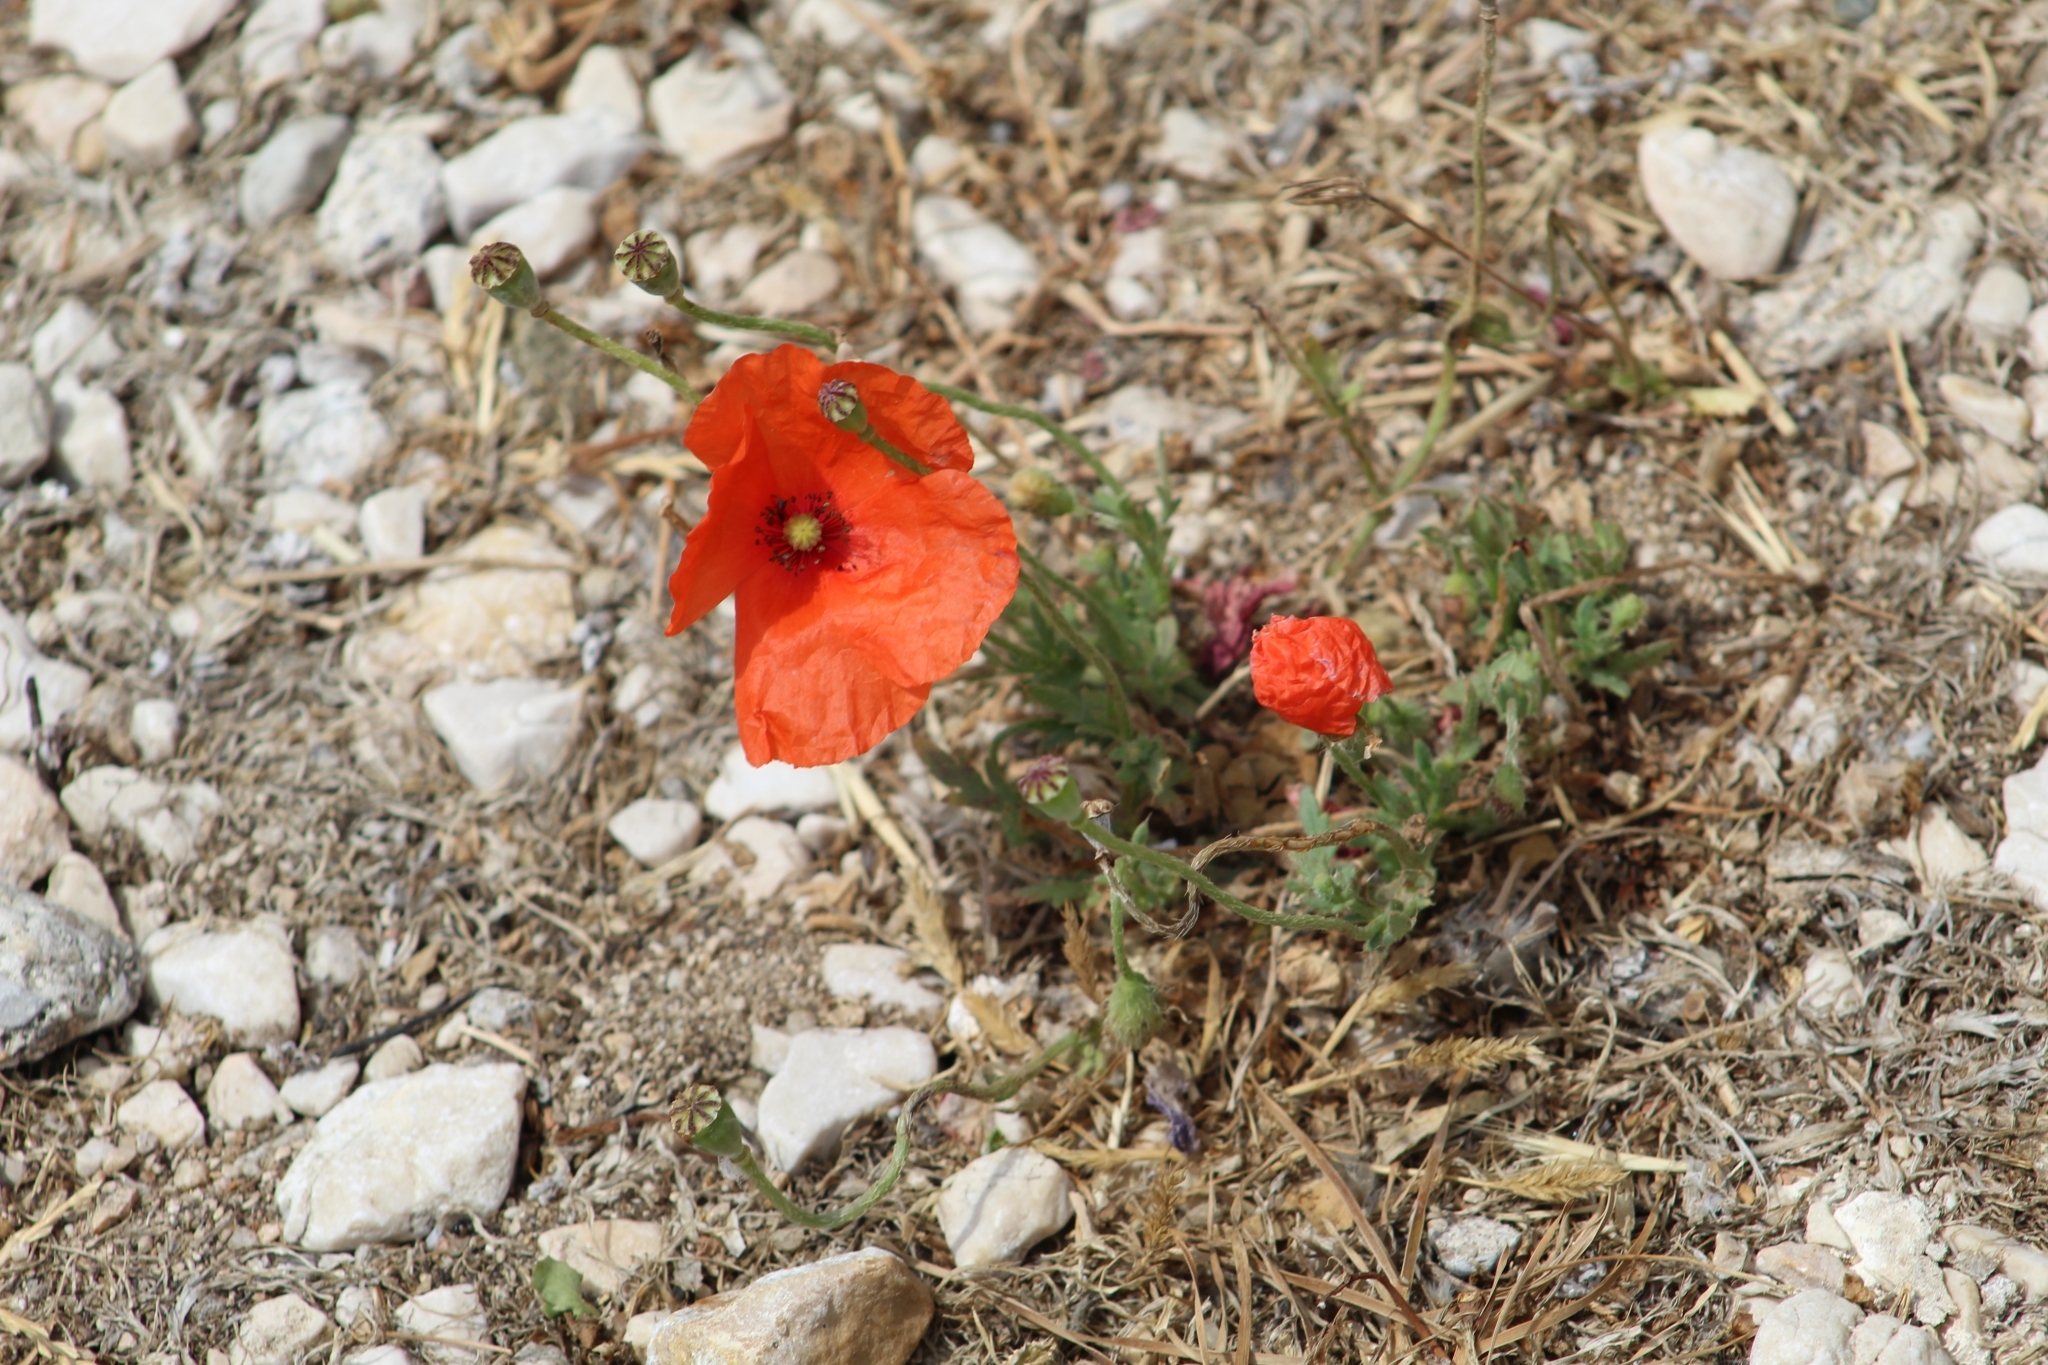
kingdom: Plantae
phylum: Tracheophyta
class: Magnoliopsida
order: Ranunculales
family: Papaveraceae
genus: Papaver
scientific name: Papaver rhoeas
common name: Corn poppy
